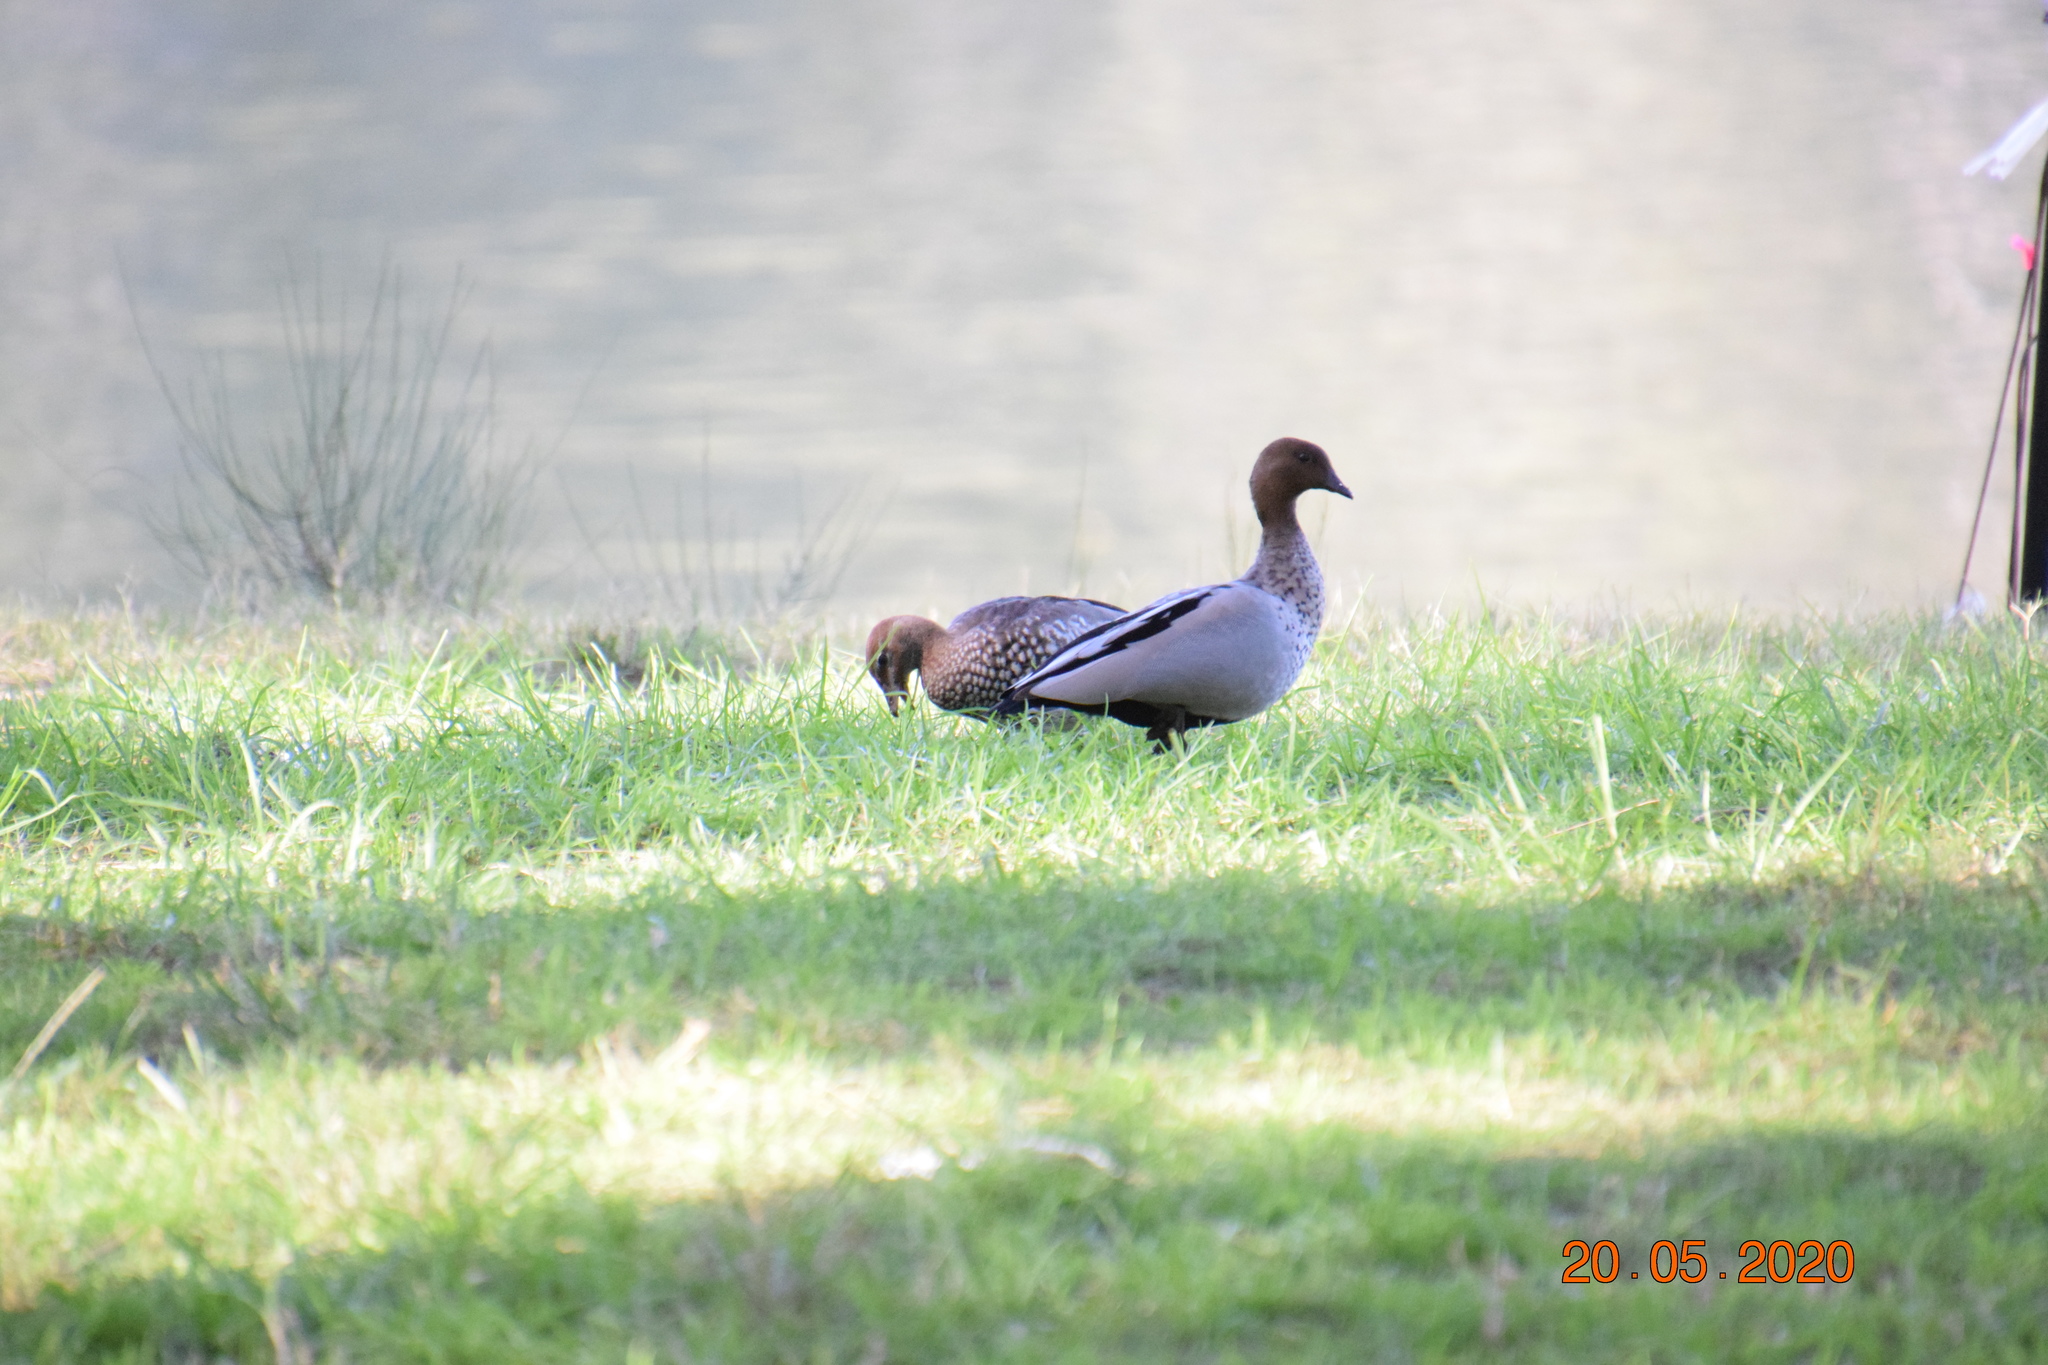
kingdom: Animalia
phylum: Chordata
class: Aves
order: Anseriformes
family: Anatidae
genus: Chenonetta
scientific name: Chenonetta jubata
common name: Maned duck
